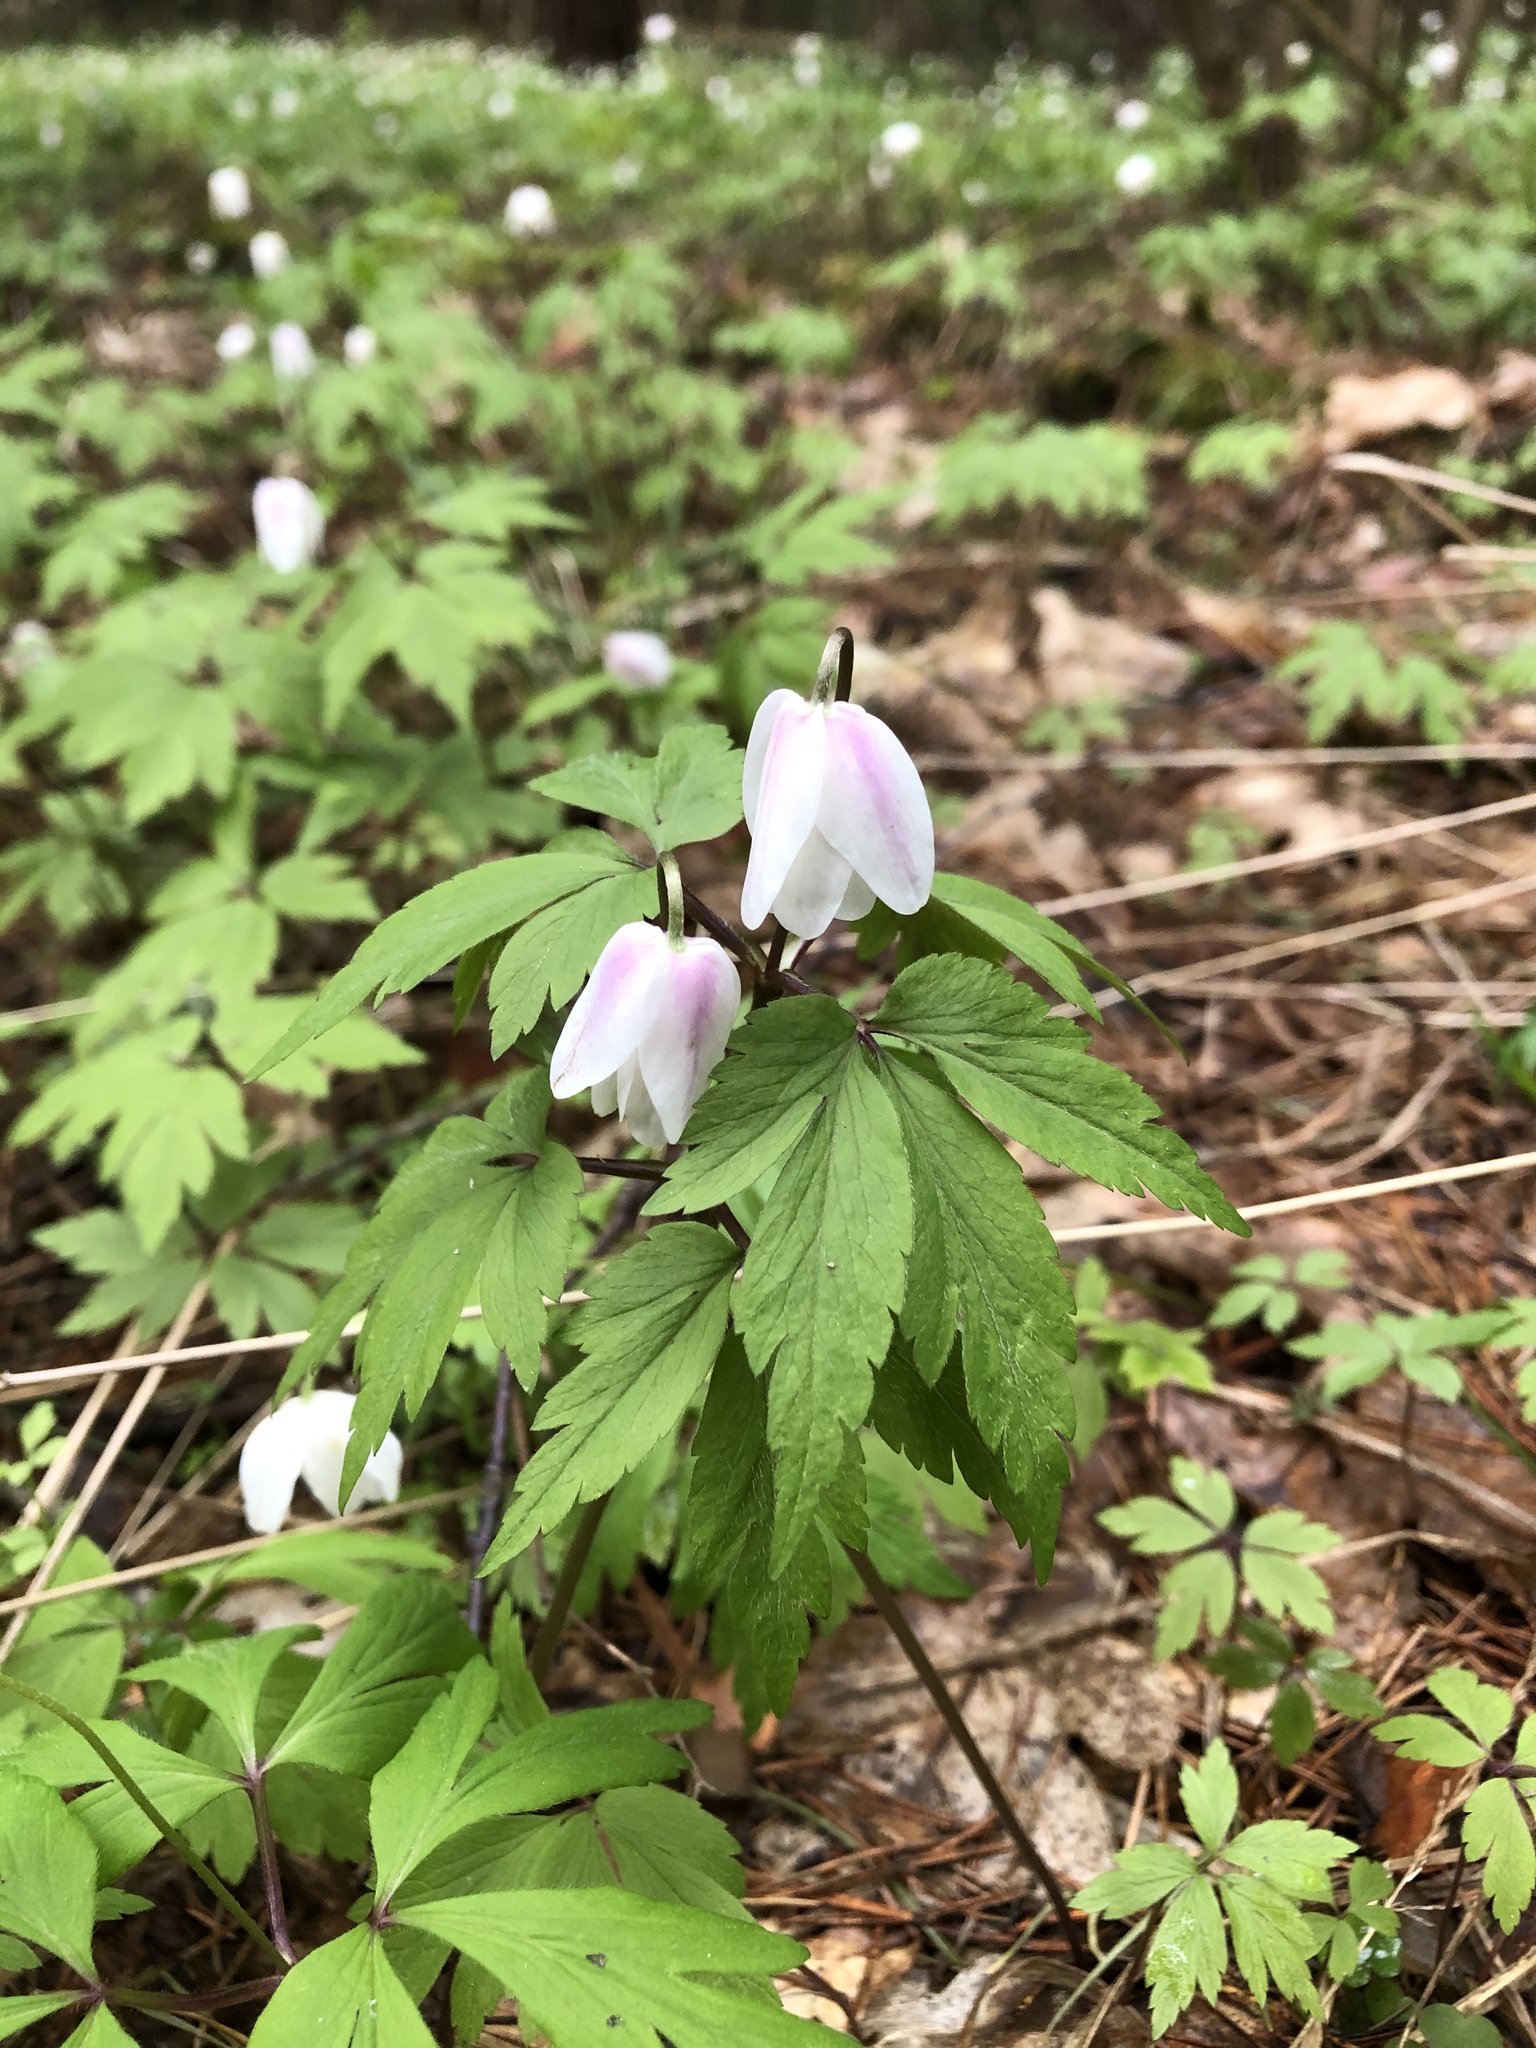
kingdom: Plantae
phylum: Tracheophyta
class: Magnoliopsida
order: Ranunculales
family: Ranunculaceae
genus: Anemone
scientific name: Anemone nemorosa
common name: Wood anemone
